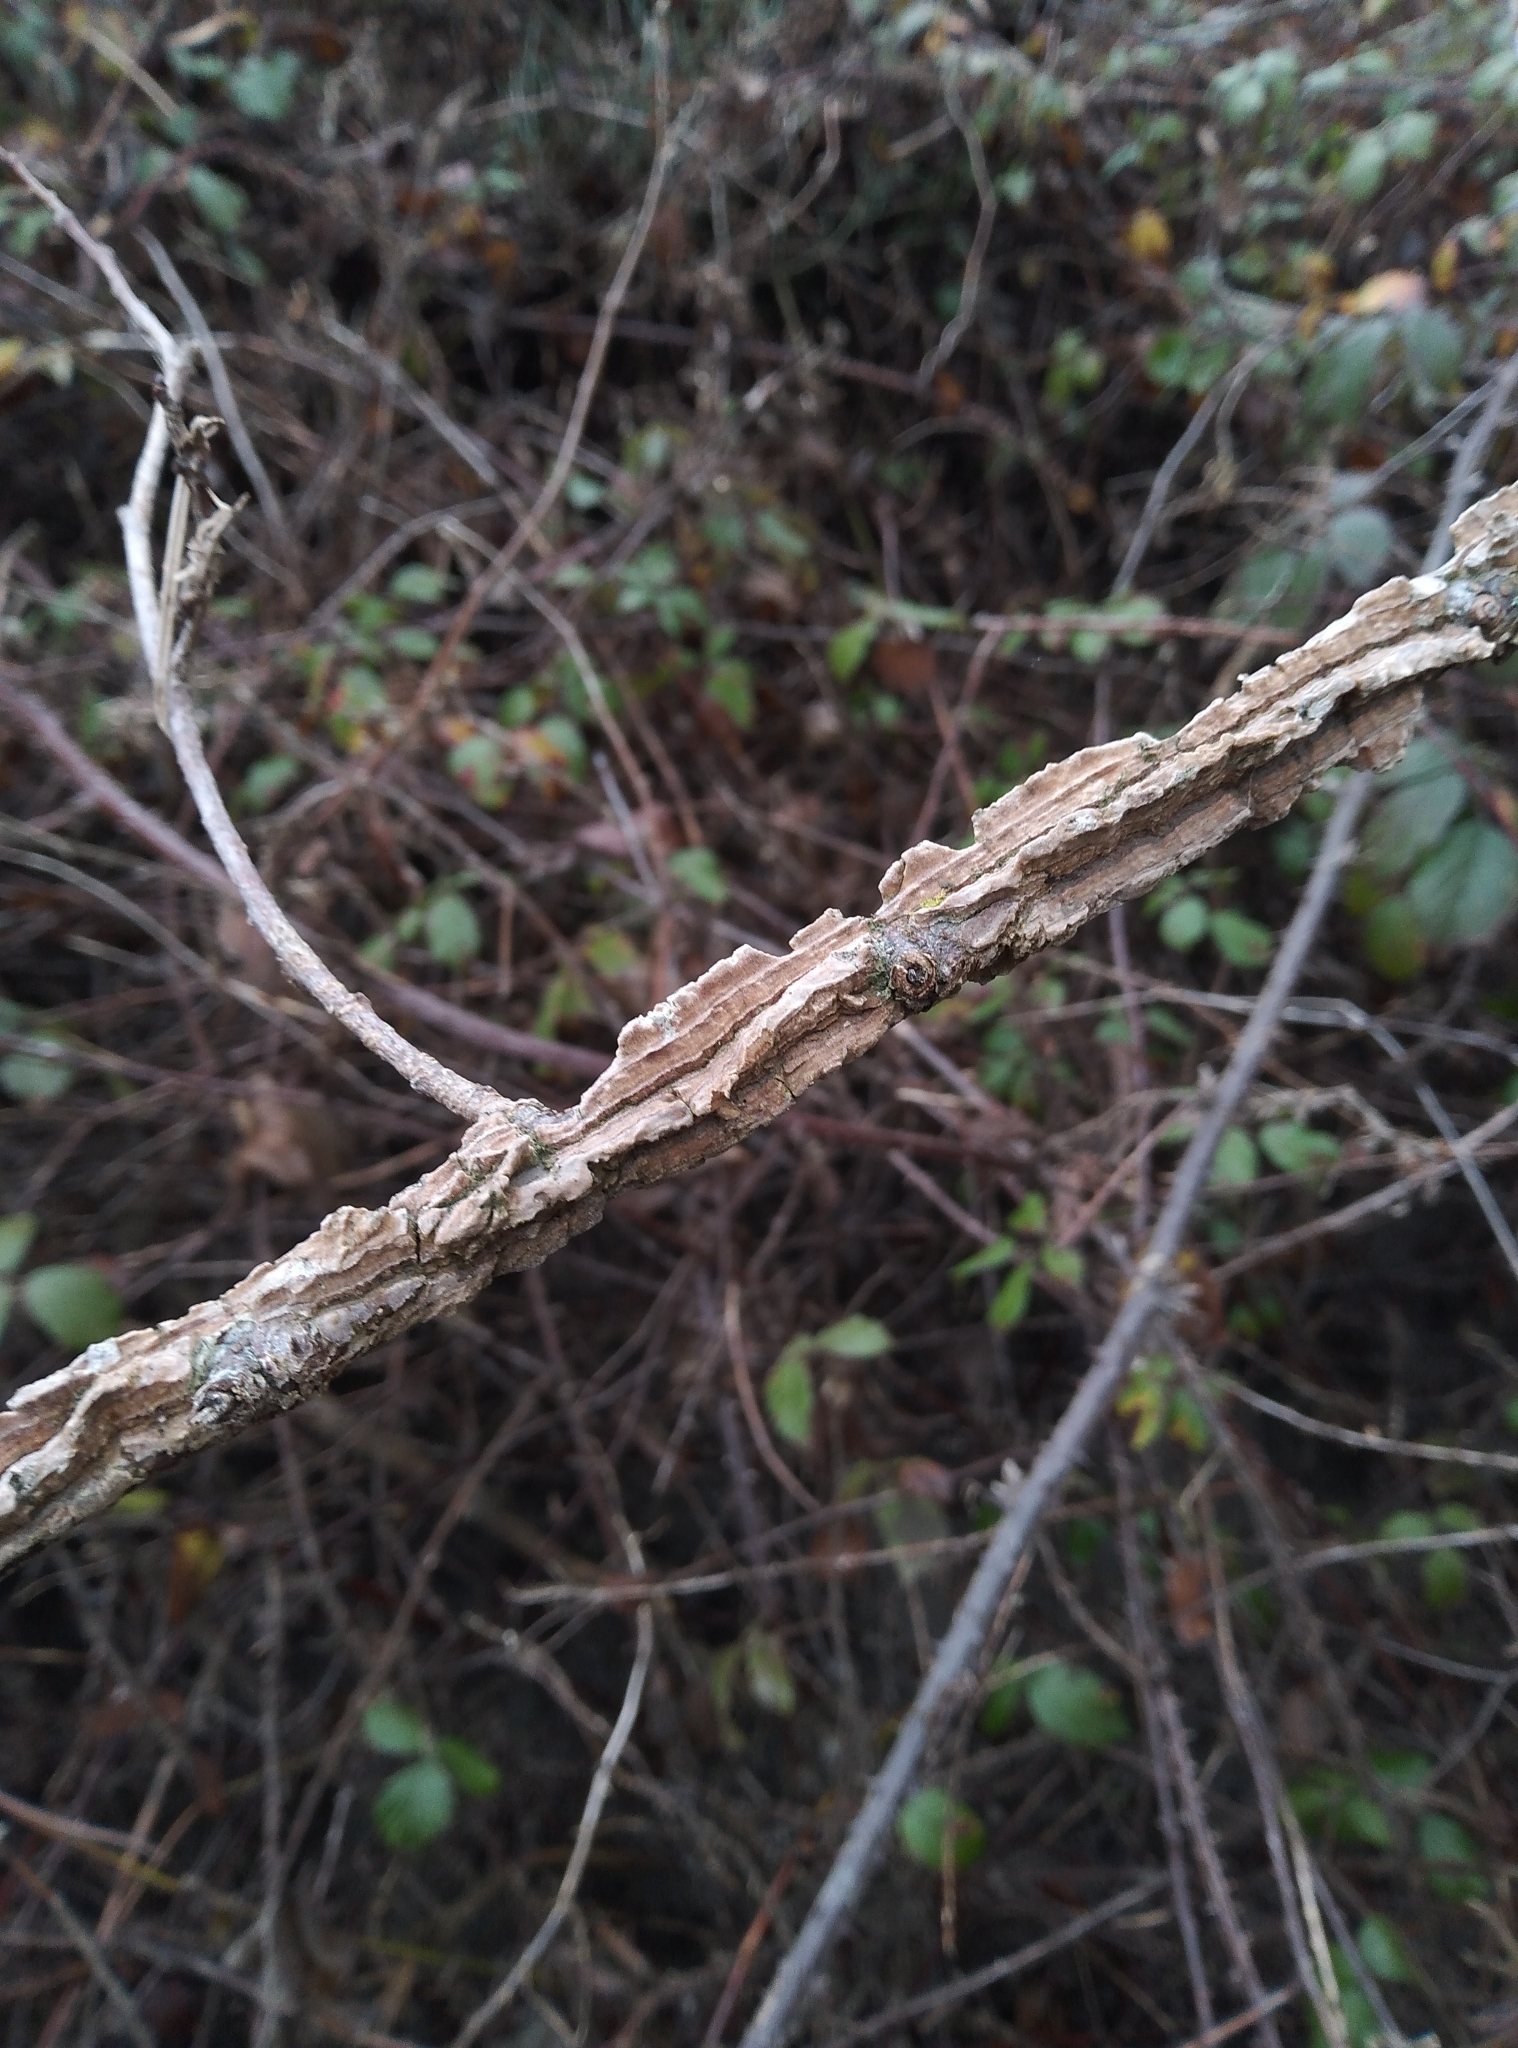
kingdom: Plantae
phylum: Tracheophyta
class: Magnoliopsida
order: Lamiales
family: Oleaceae
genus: Fraxinus
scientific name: Fraxinus excelsior
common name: European ash
